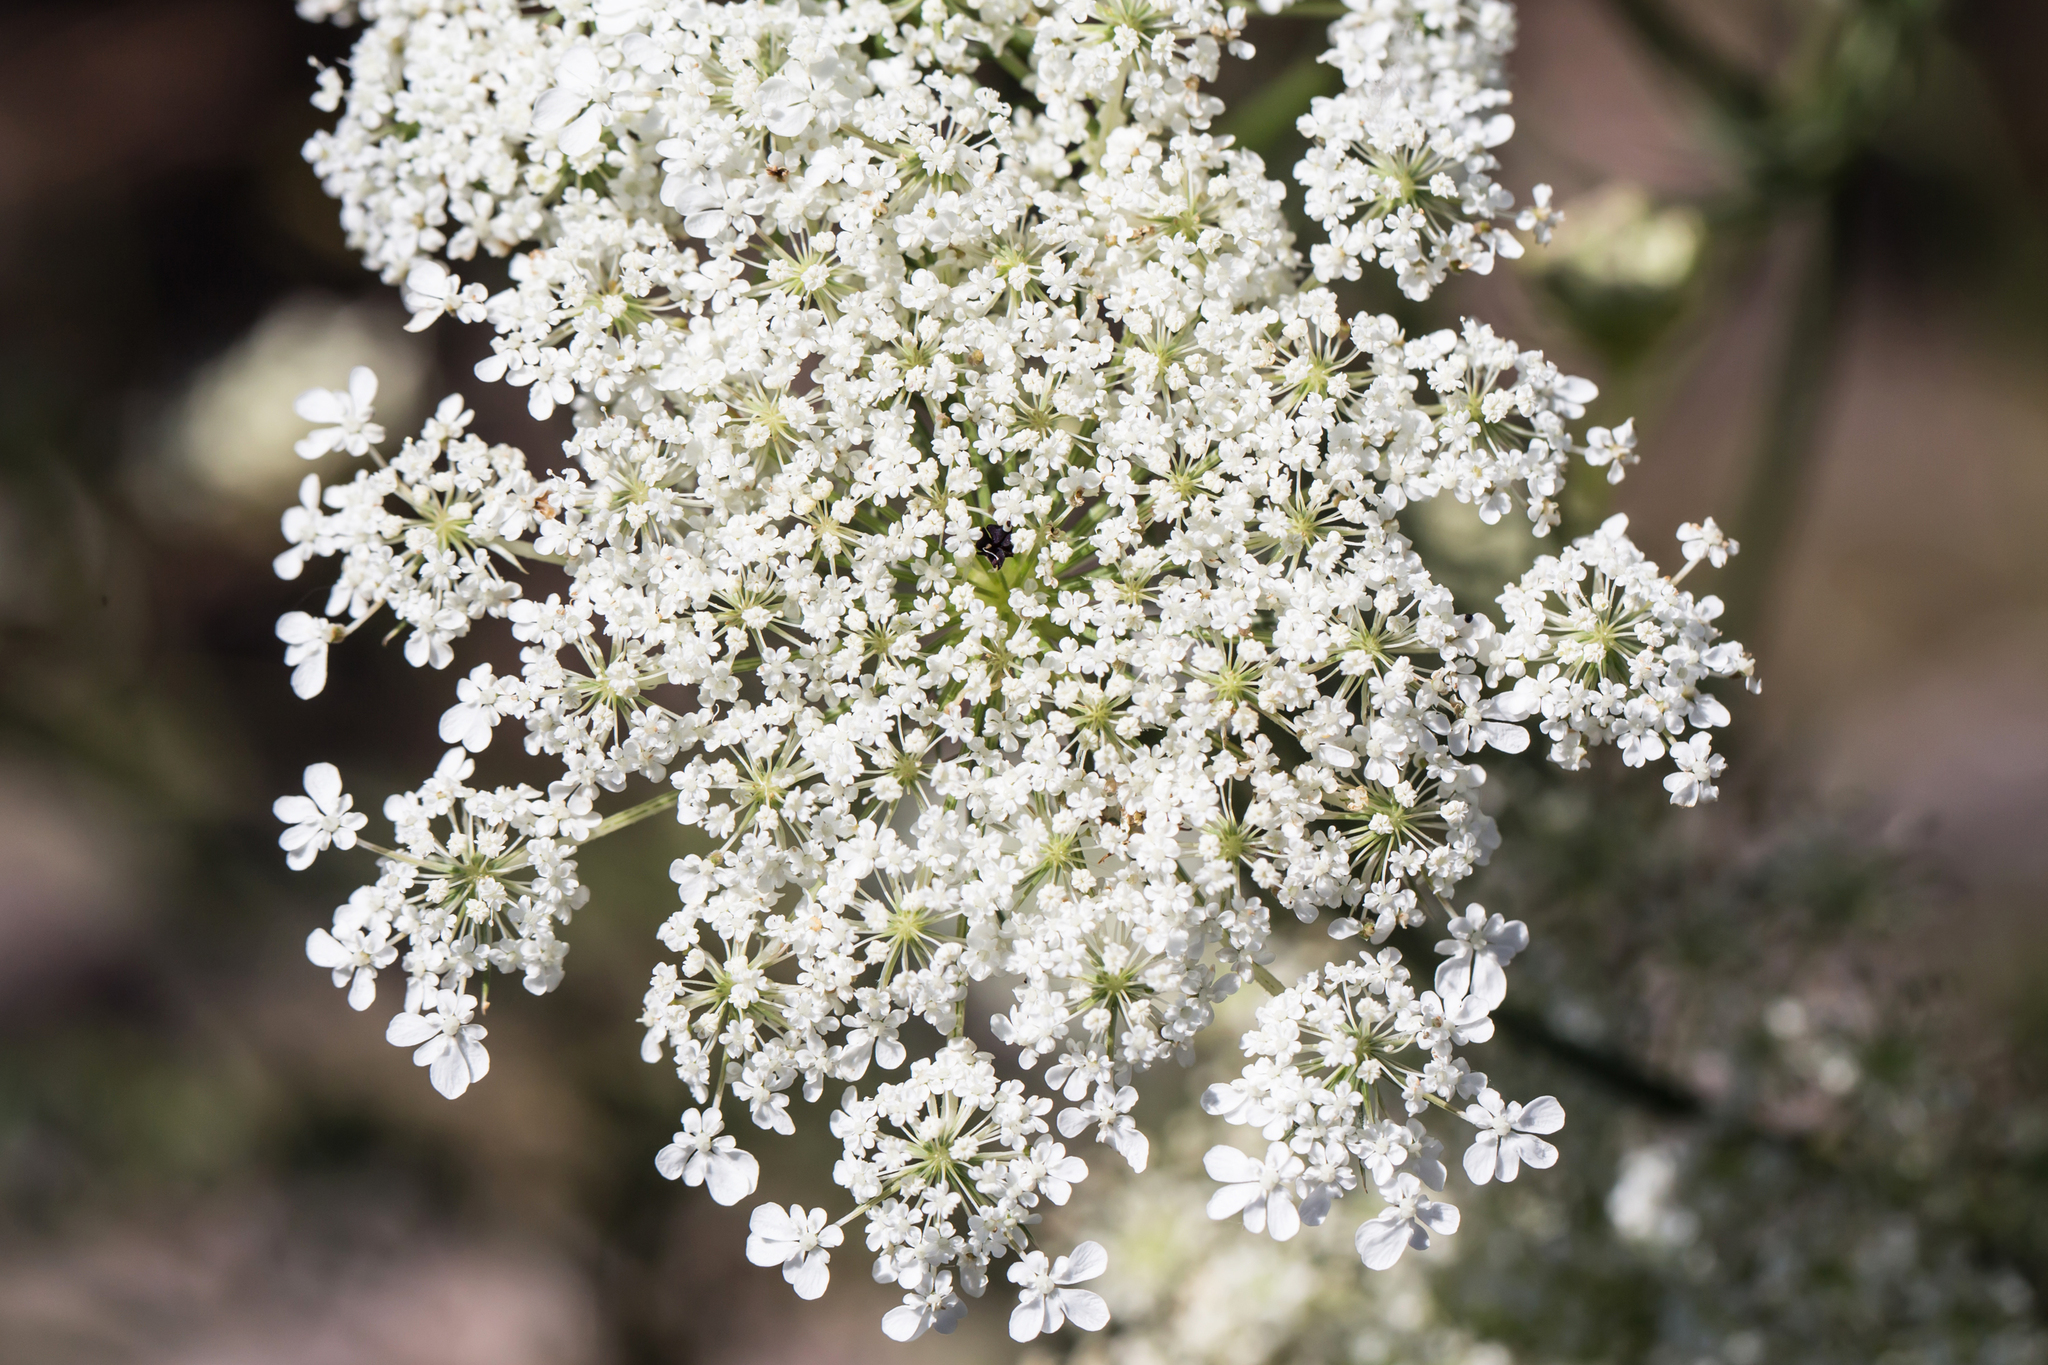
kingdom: Plantae
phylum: Tracheophyta
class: Magnoliopsida
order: Apiales
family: Apiaceae
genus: Daucus
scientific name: Daucus carota
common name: Wild carrot
